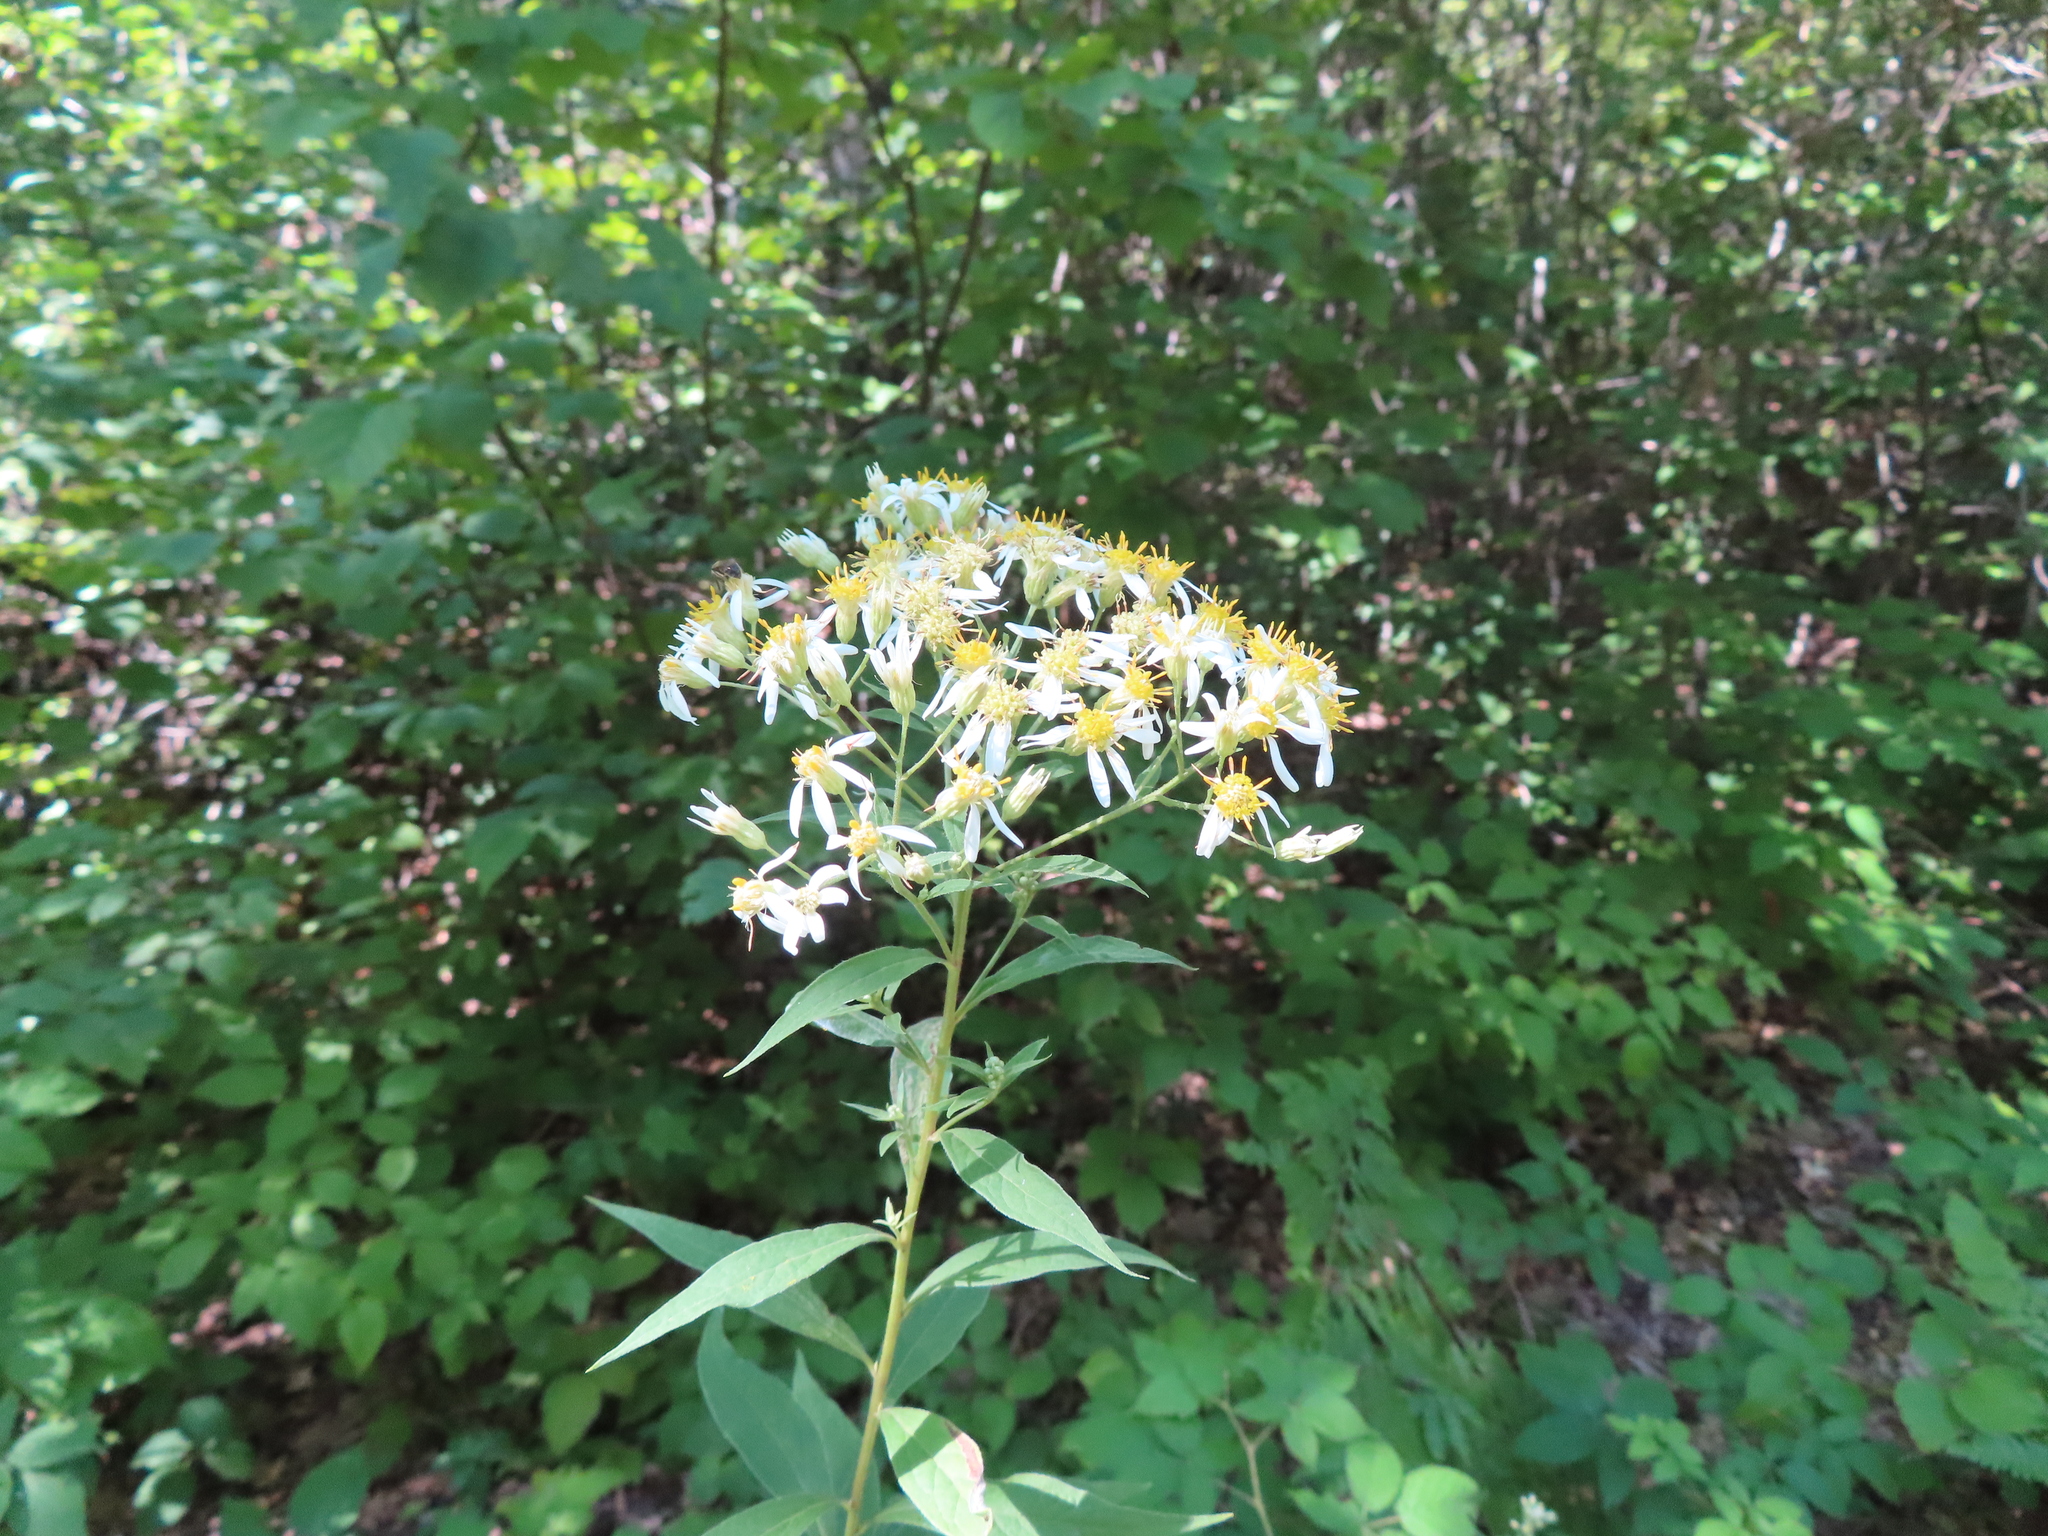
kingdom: Plantae
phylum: Tracheophyta
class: Magnoliopsida
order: Asterales
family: Asteraceae
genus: Doellingeria
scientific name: Doellingeria umbellata
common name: Flat-top white aster
